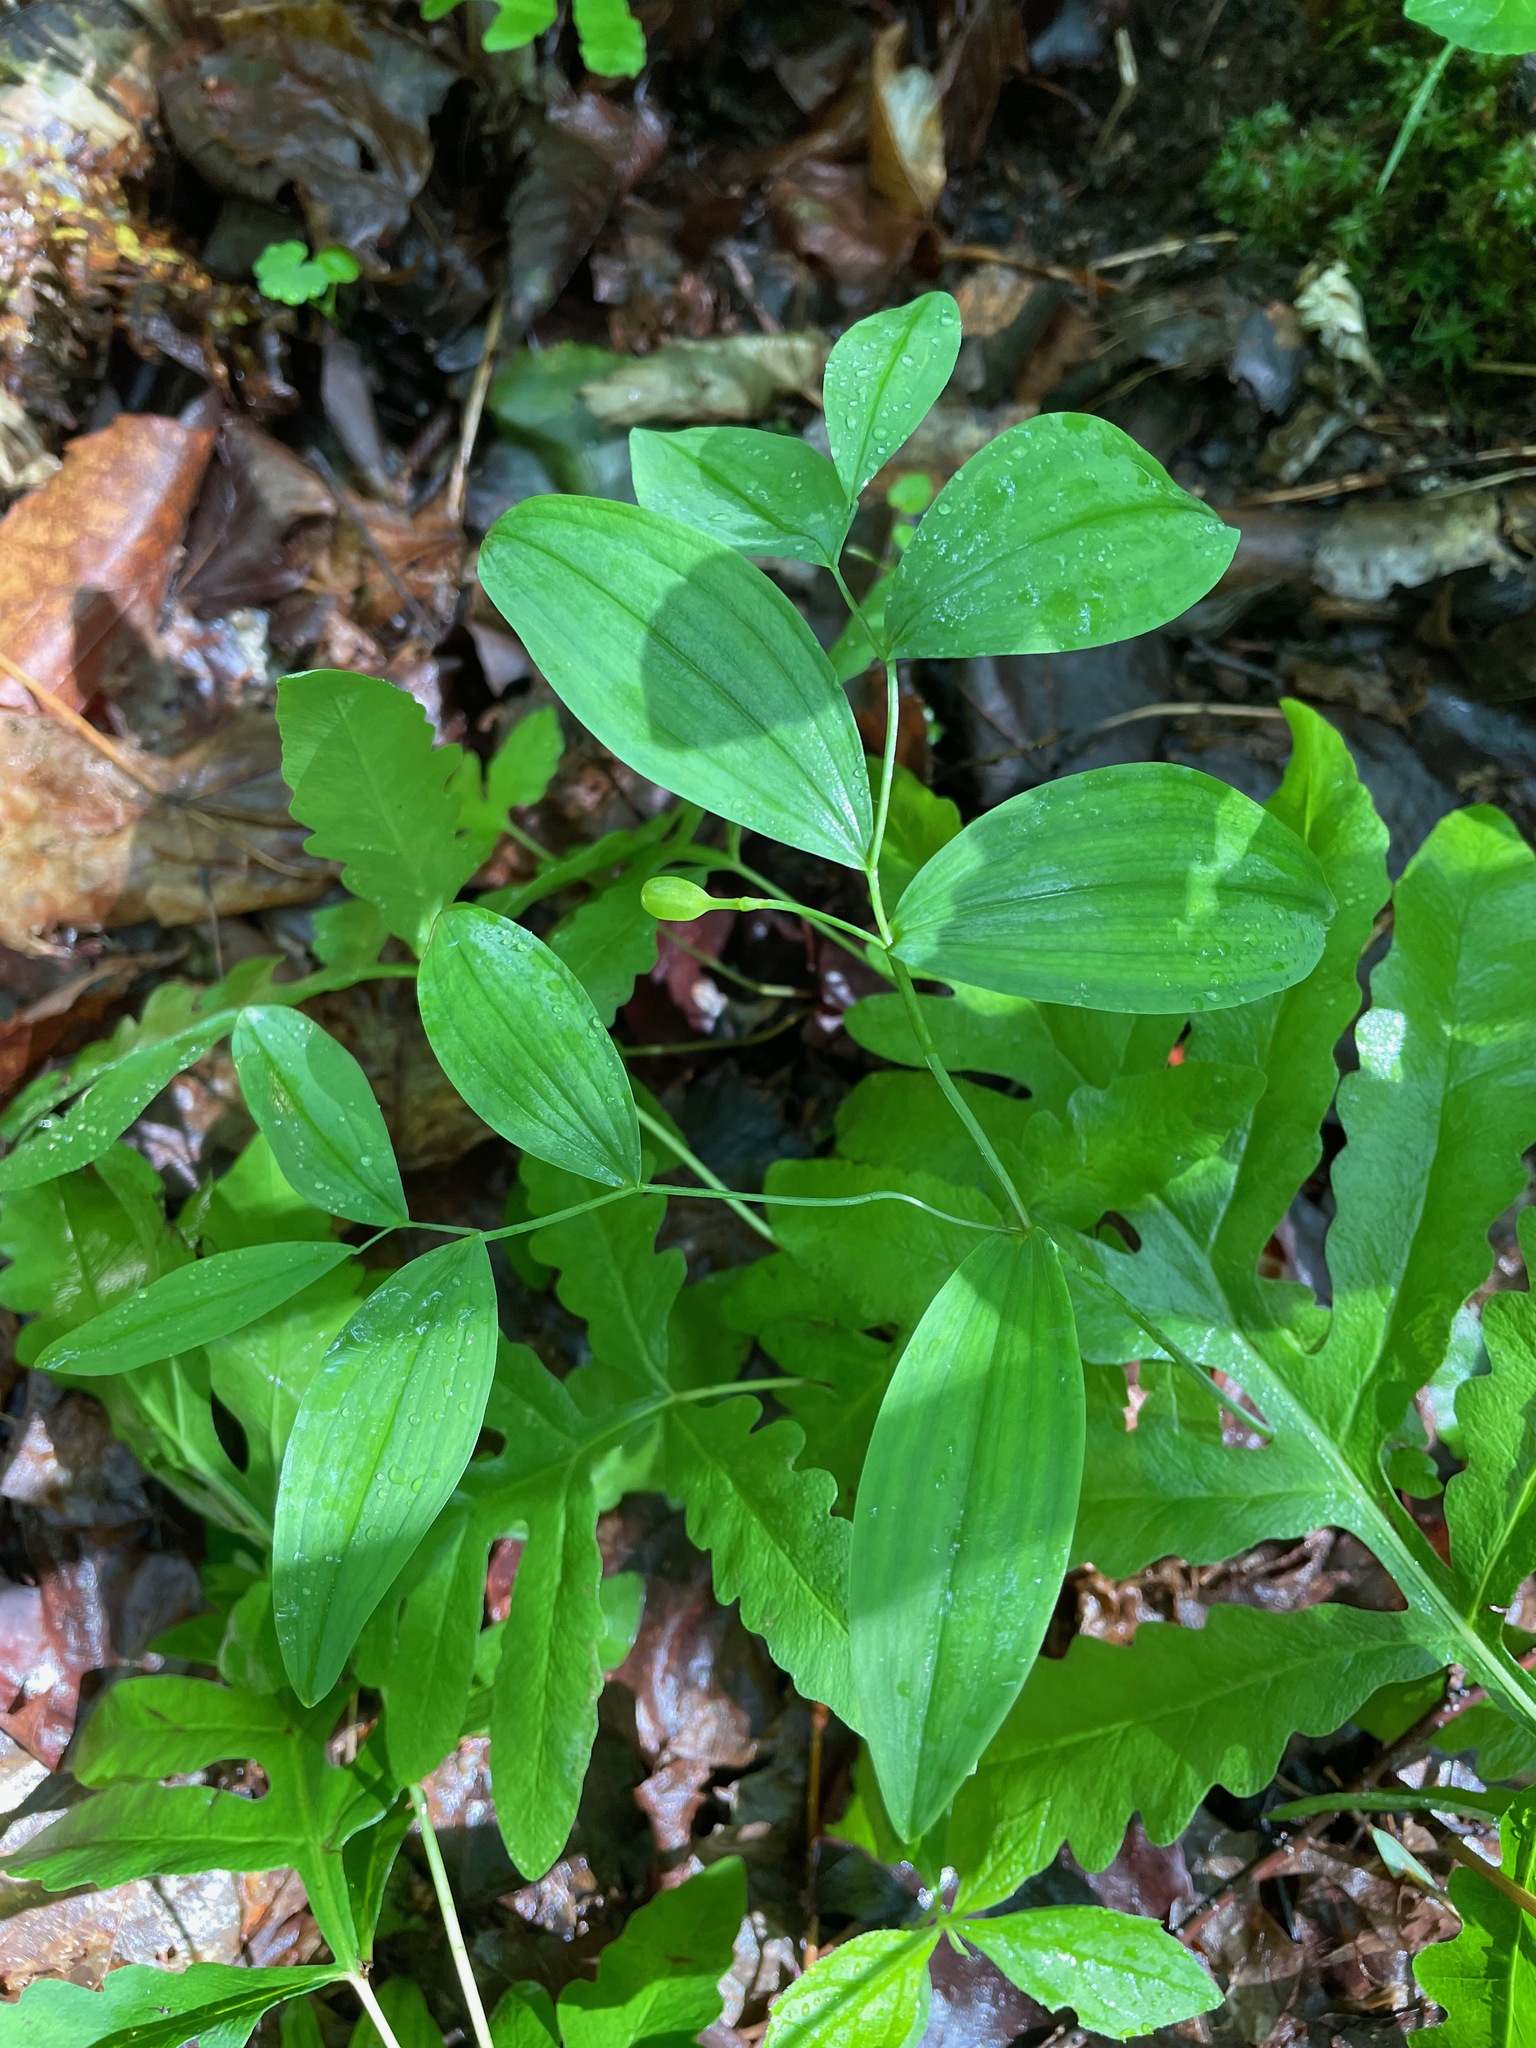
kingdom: Plantae
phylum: Tracheophyta
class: Liliopsida
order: Liliales
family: Colchicaceae
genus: Uvularia
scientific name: Uvularia sessilifolia
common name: Straw-lily
